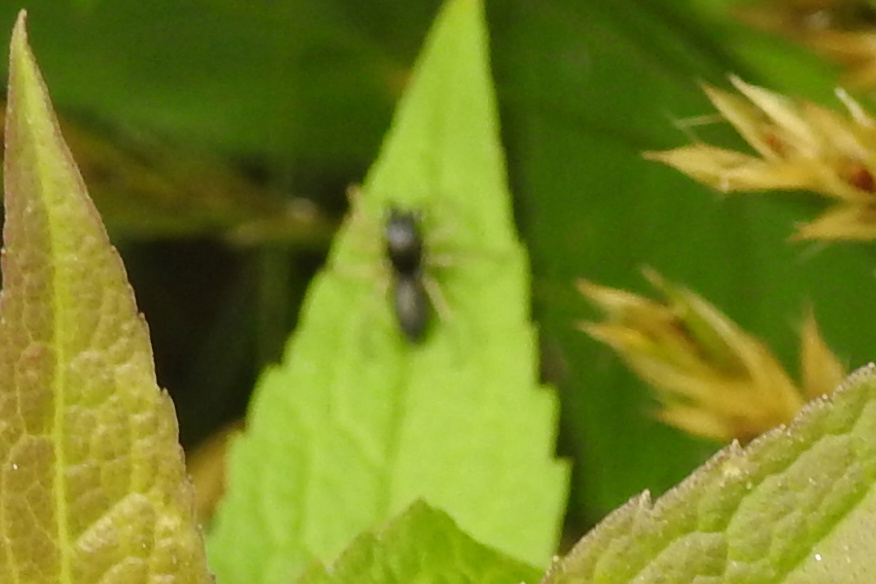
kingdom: Animalia
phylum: Arthropoda
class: Arachnida
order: Araneae
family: Salticidae
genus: Maevia
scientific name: Maevia inclemens
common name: Dimorphic jumper
